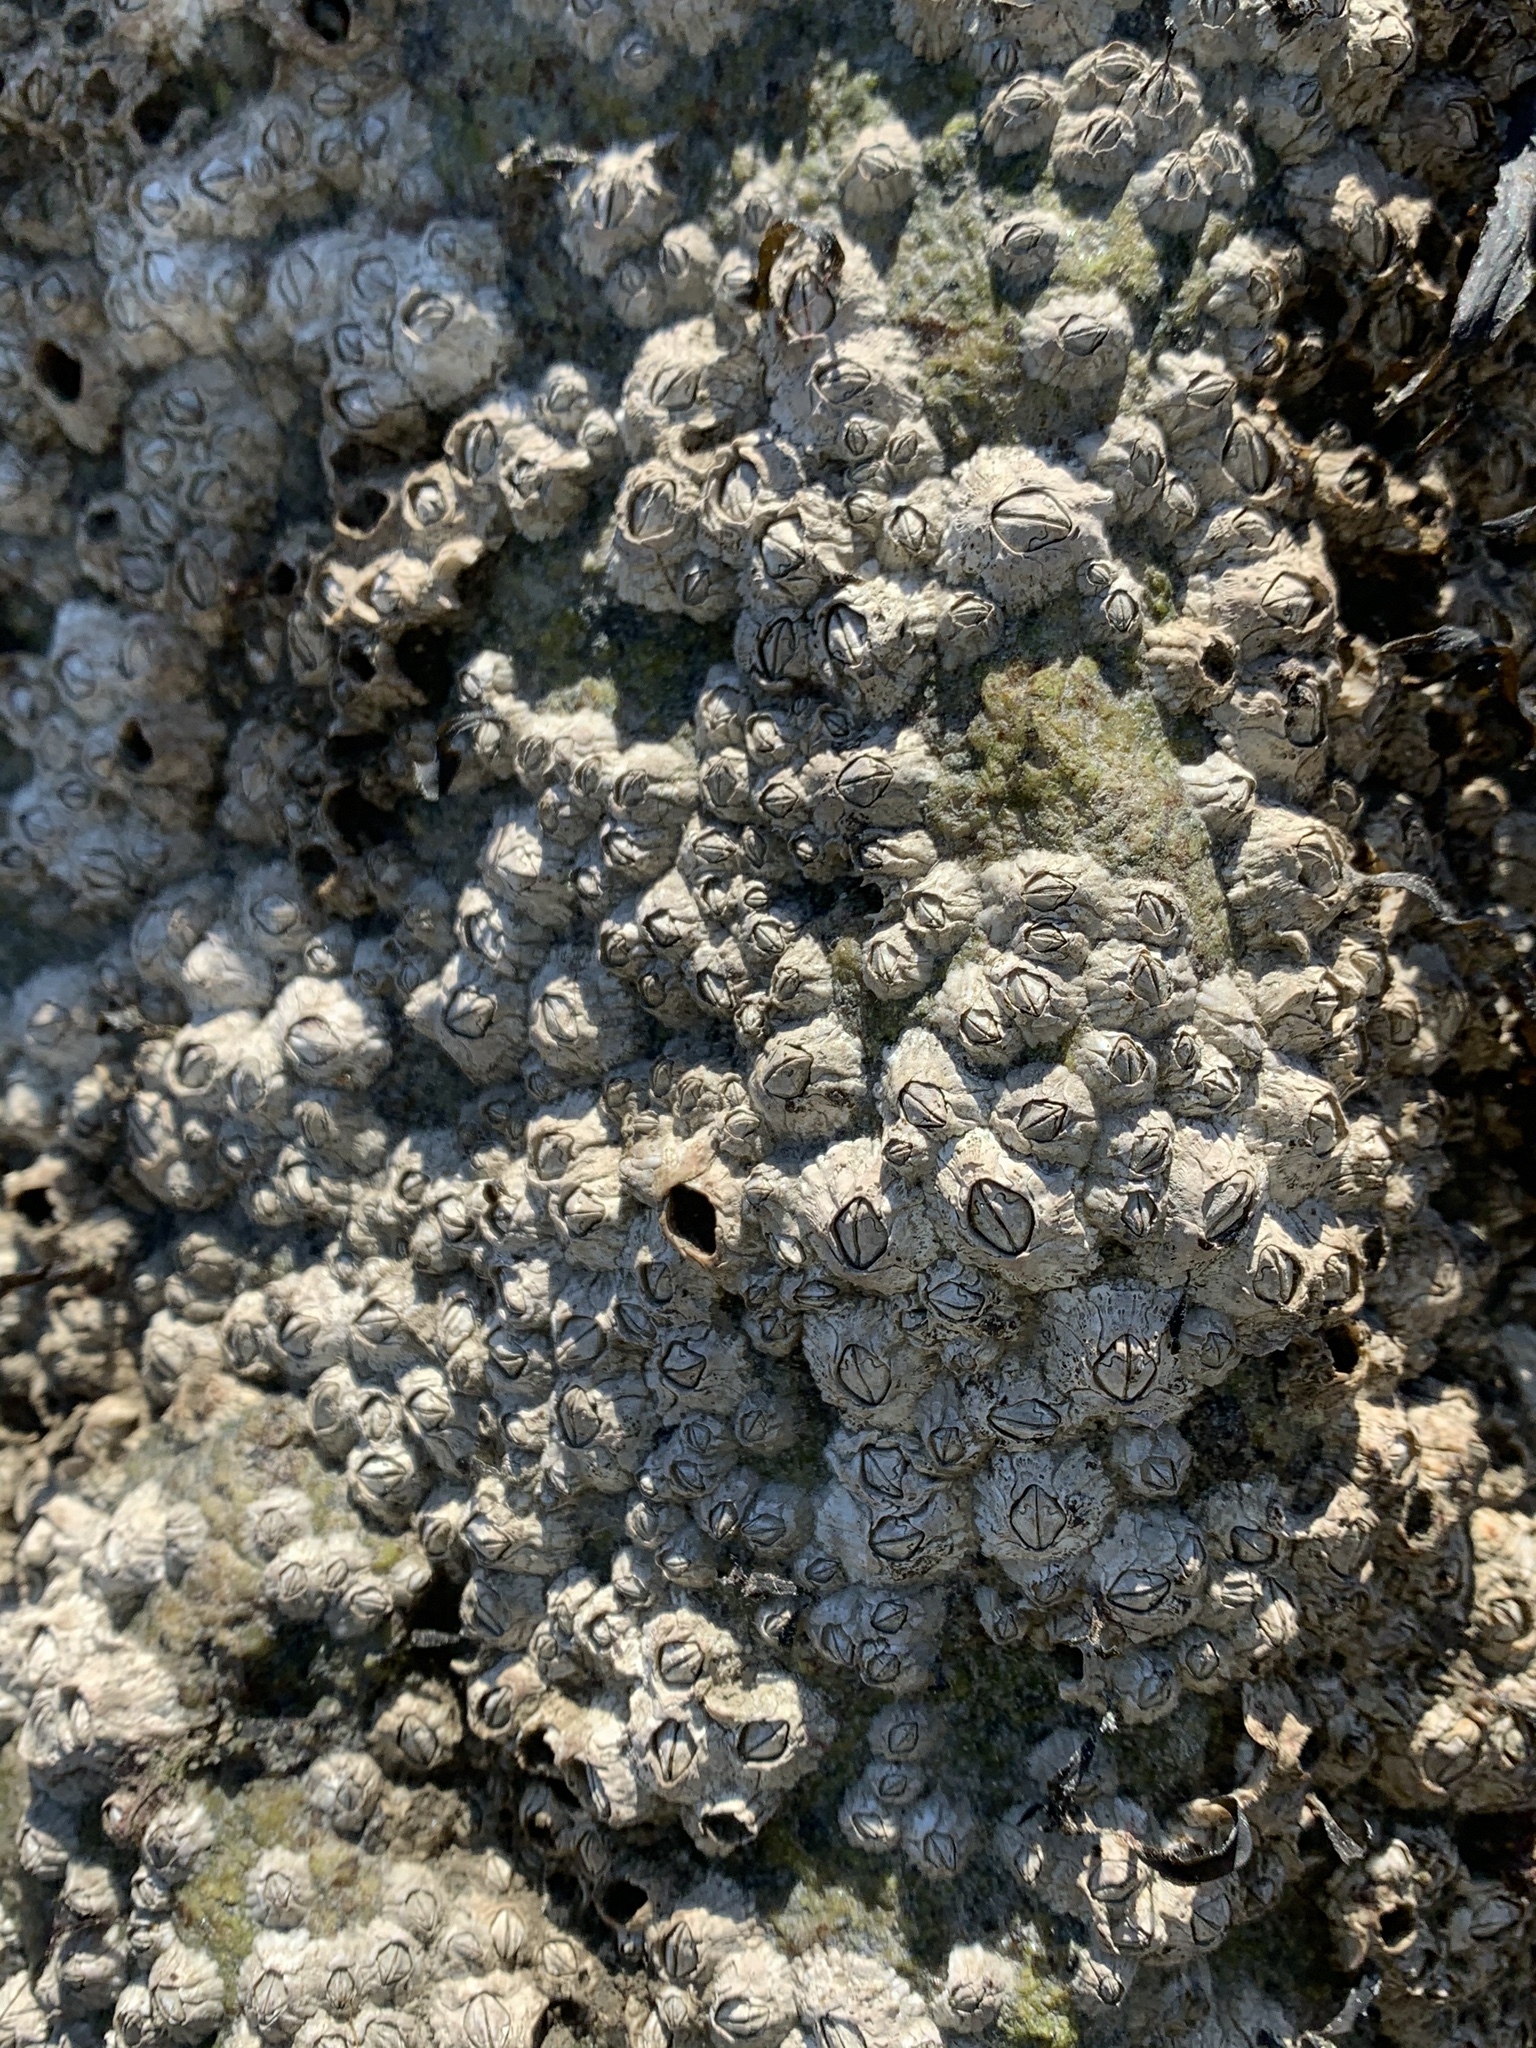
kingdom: Animalia
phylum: Arthropoda
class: Maxillopoda
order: Sessilia
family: Archaeobalanidae
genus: Semibalanus
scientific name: Semibalanus balanoides
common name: Acorn barnacle
